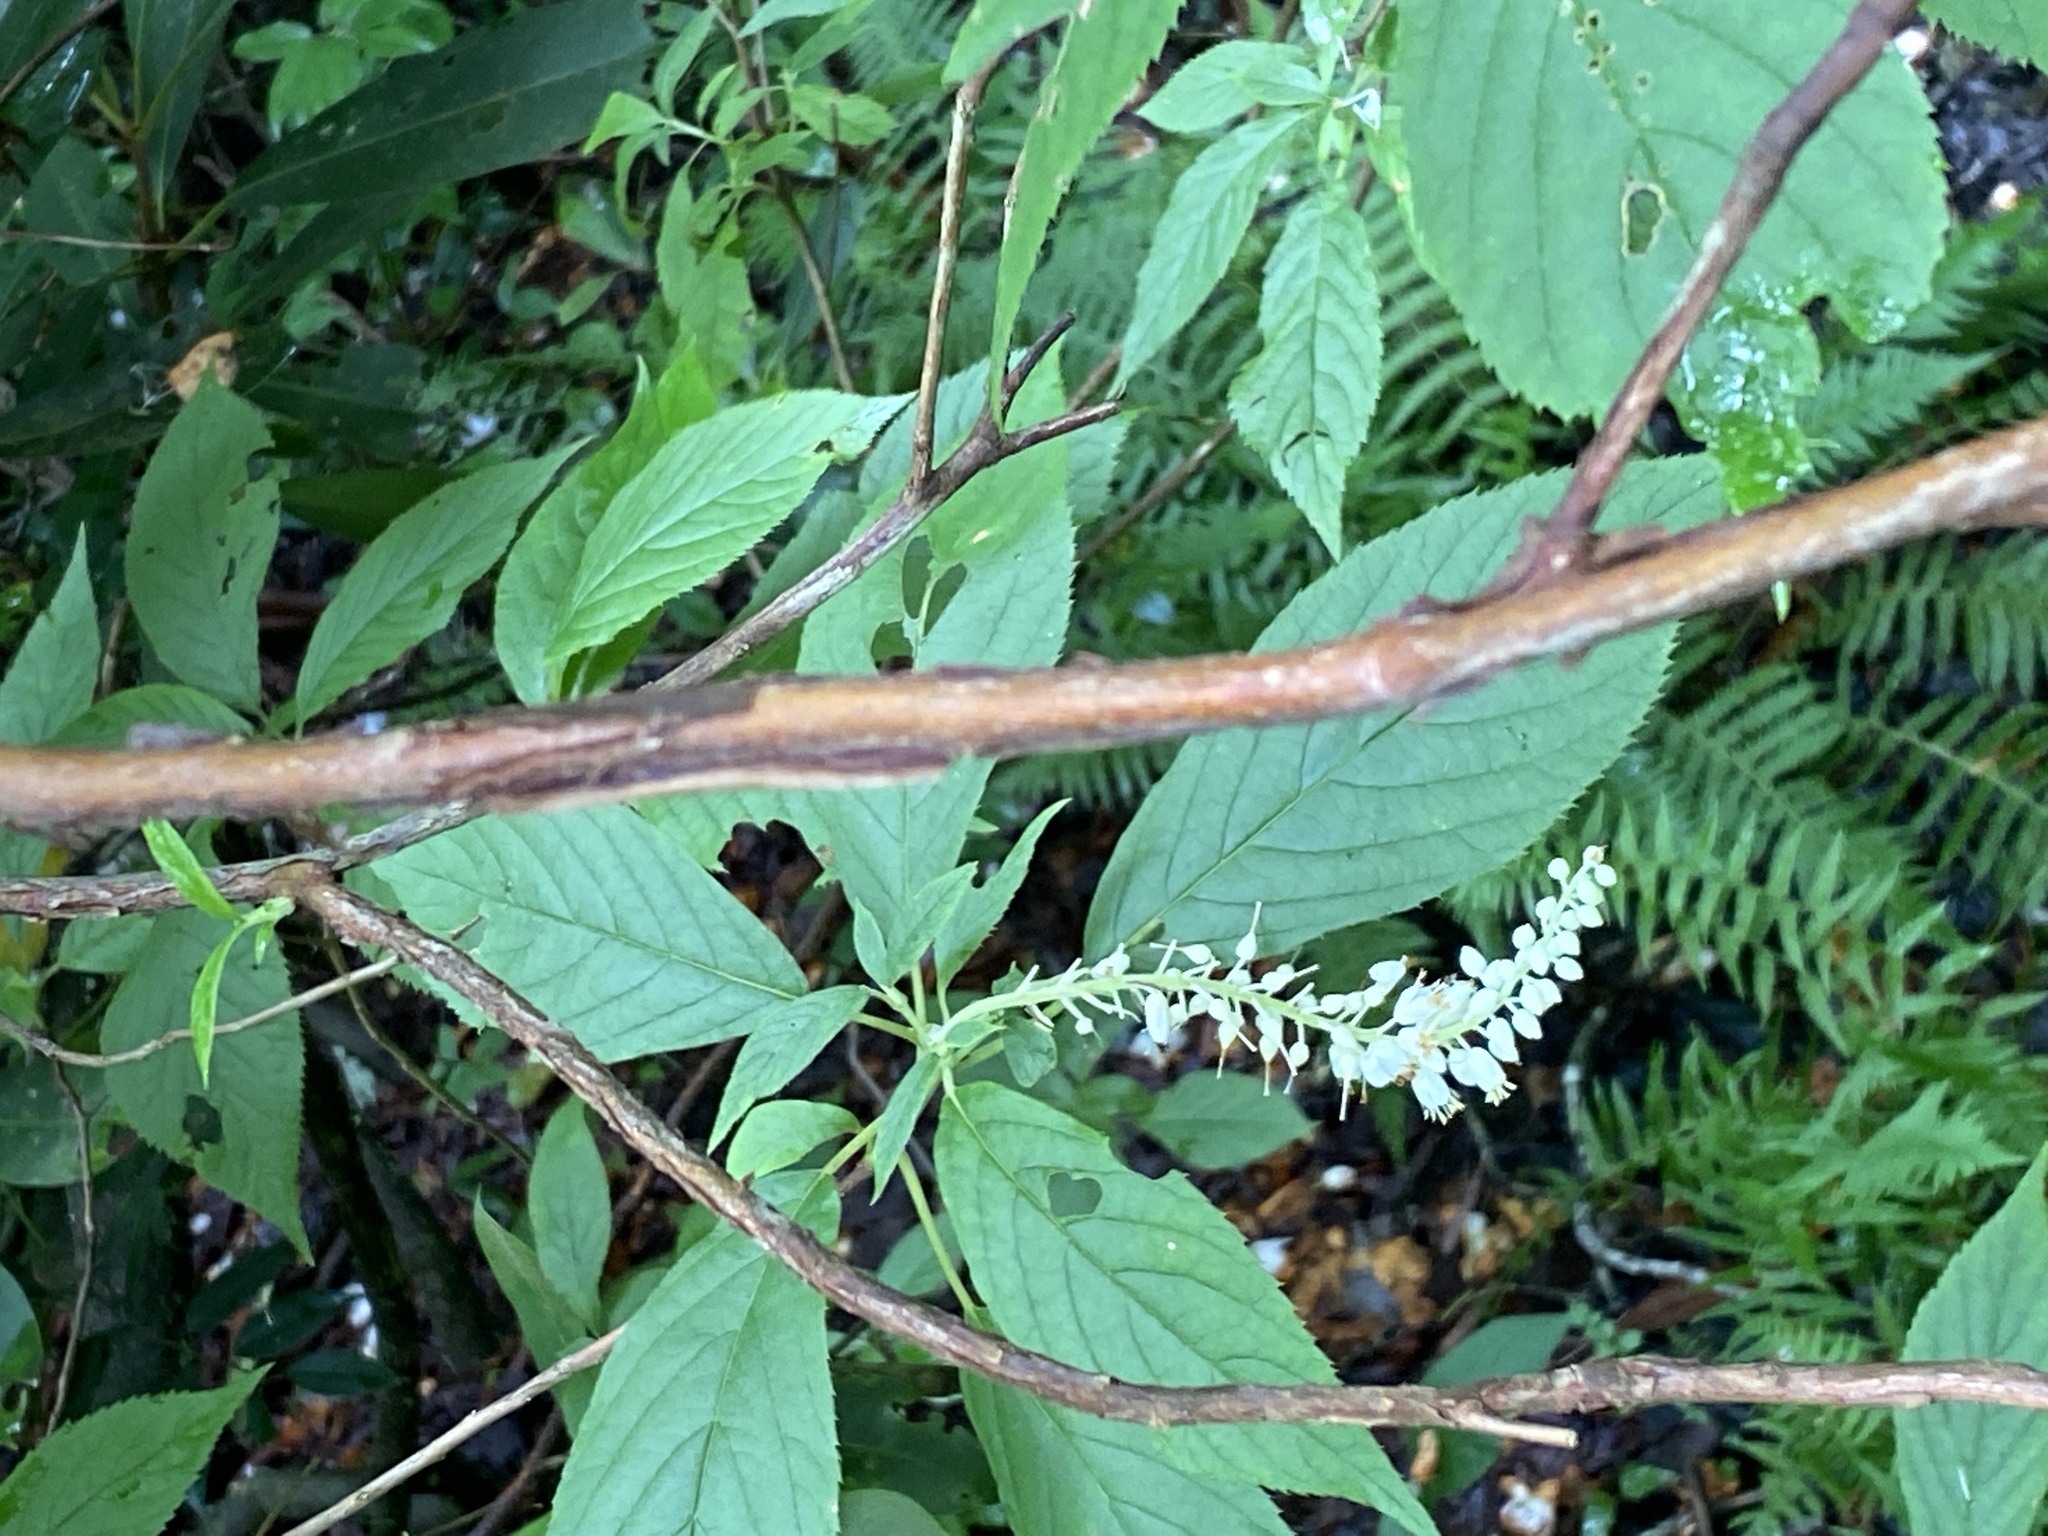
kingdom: Plantae
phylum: Tracheophyta
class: Magnoliopsida
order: Ericales
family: Clethraceae
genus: Clethra
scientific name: Clethra acuminata
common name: Mountain sweet pepperbush
